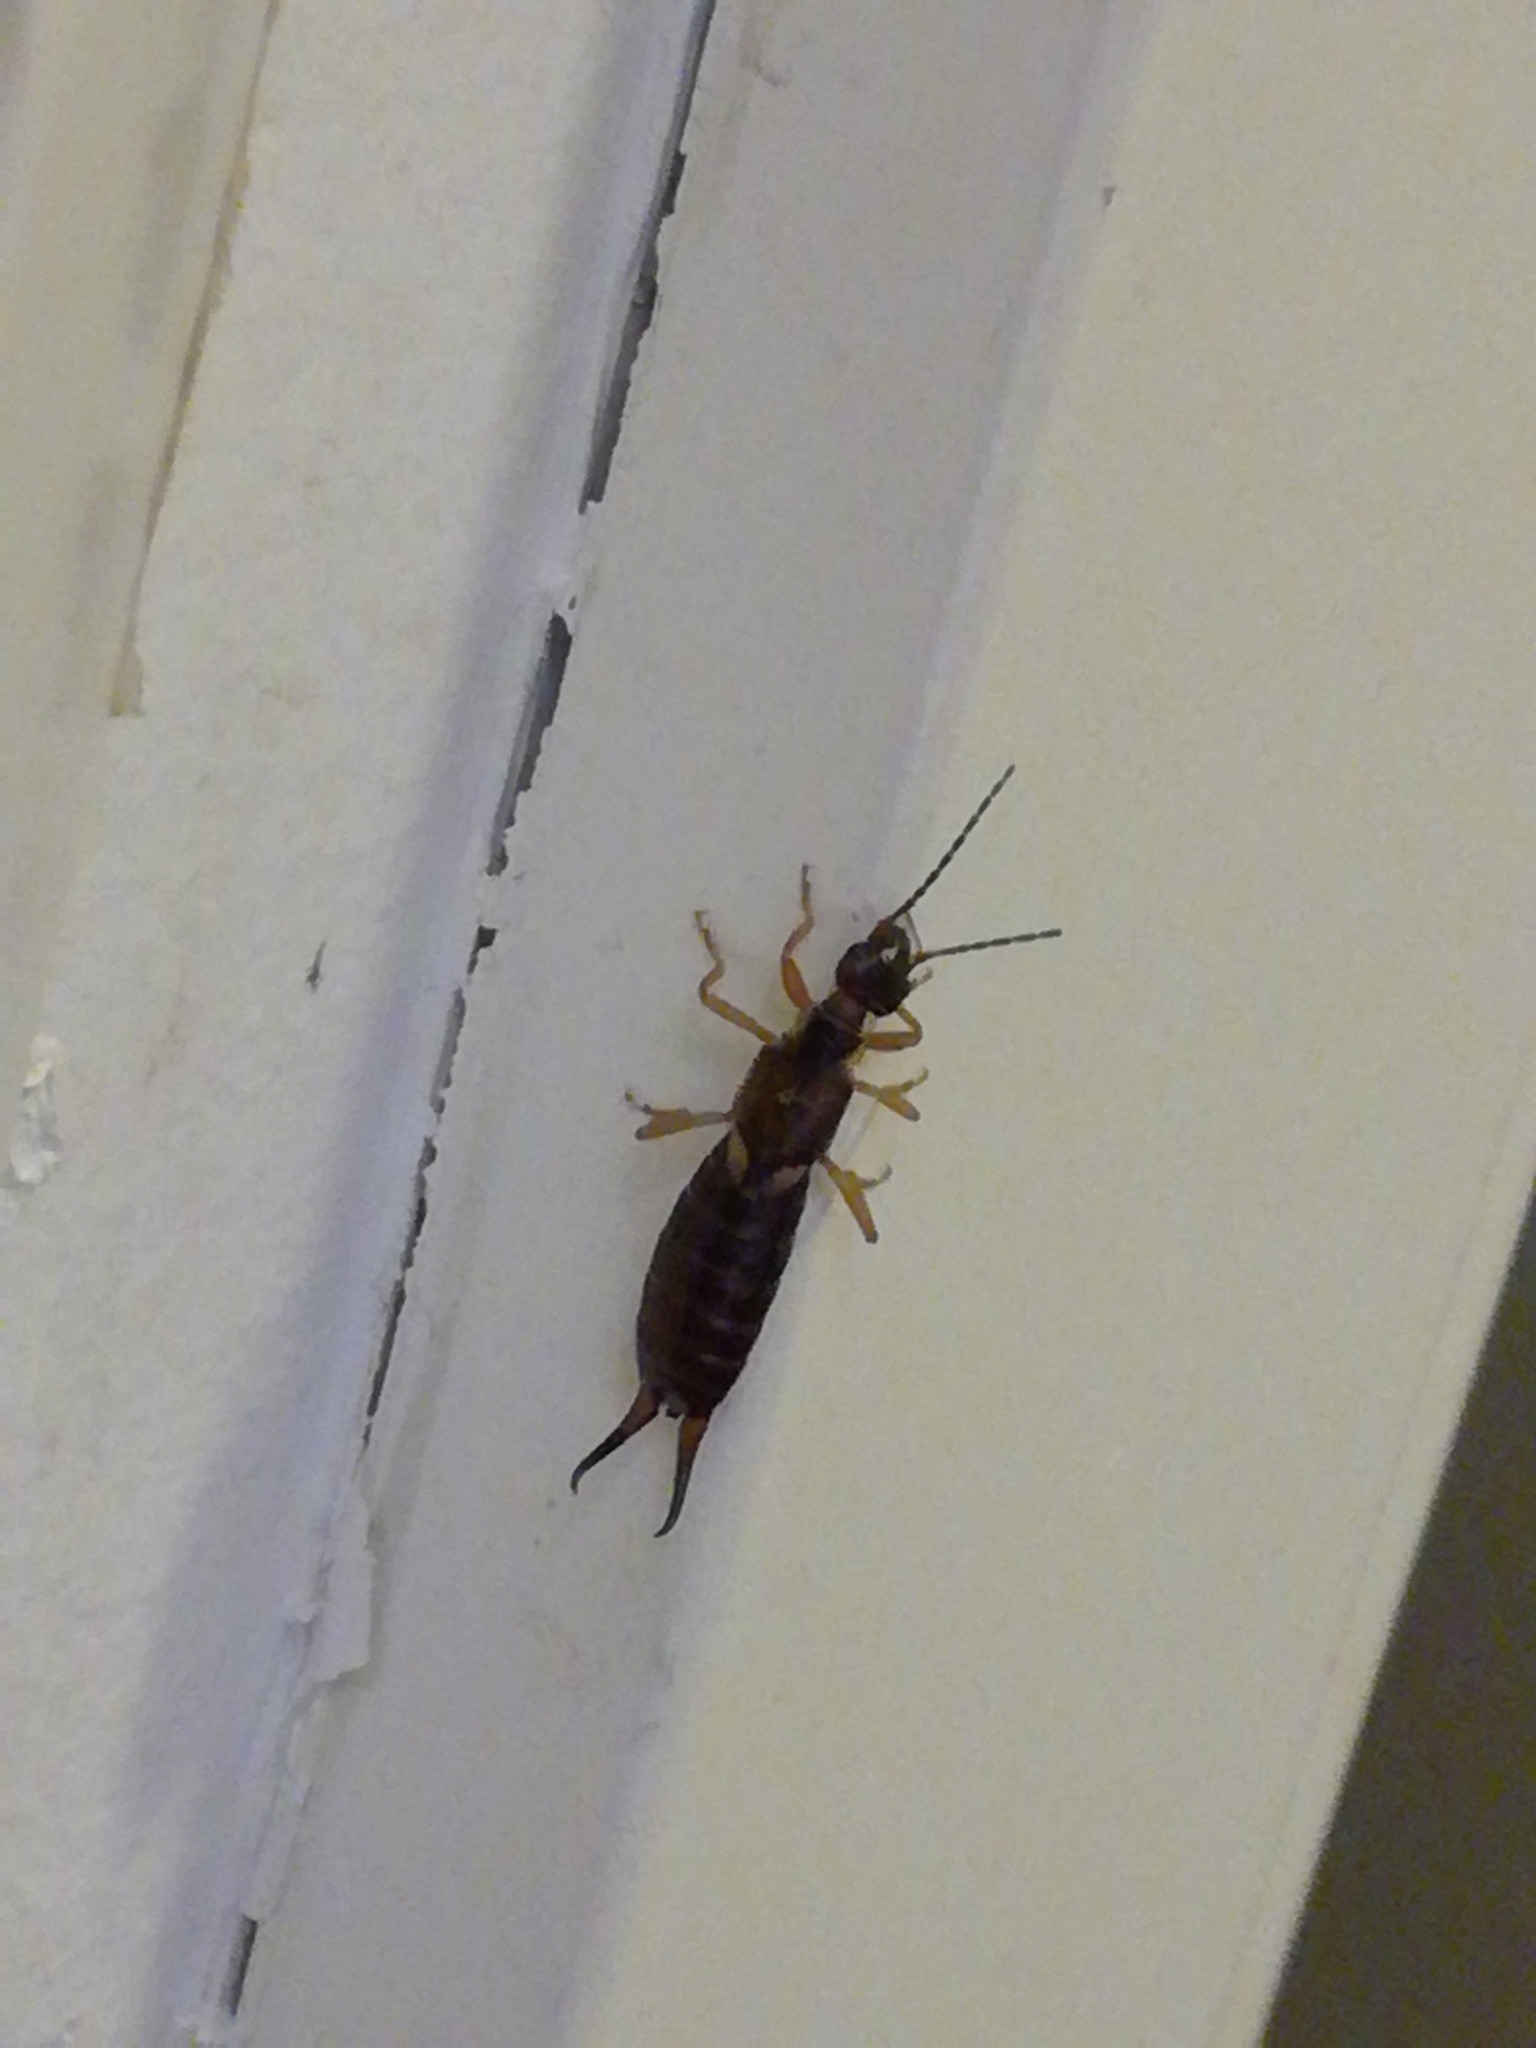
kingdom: Animalia
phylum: Arthropoda
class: Insecta
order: Dermaptera
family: Forficulidae
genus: Forficula
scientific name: Forficula
